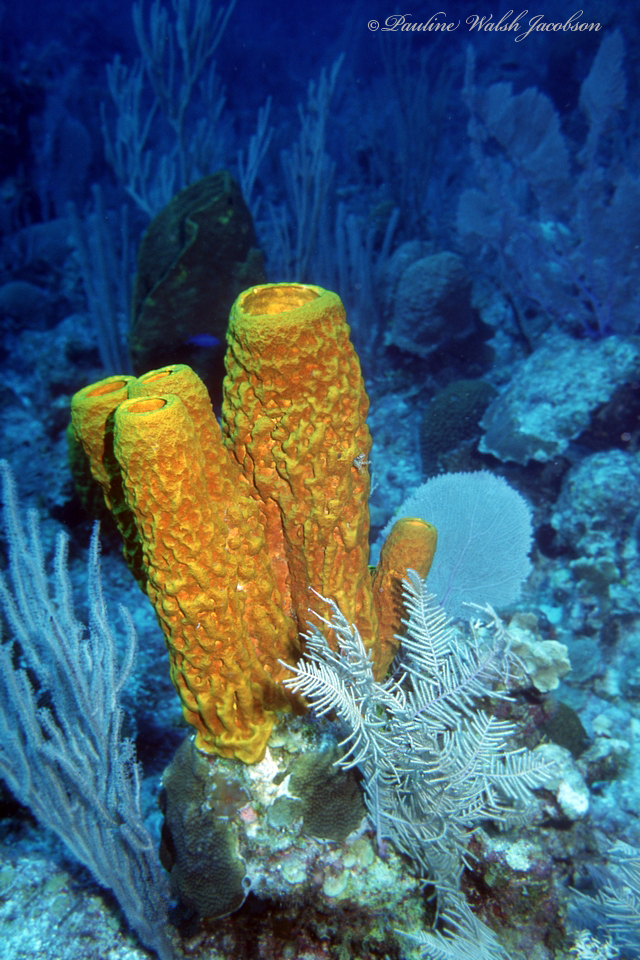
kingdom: Animalia
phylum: Porifera
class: Demospongiae
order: Verongiida
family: Aplysinidae
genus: Aplysina
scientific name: Aplysina fistularis
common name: Candle sponge
